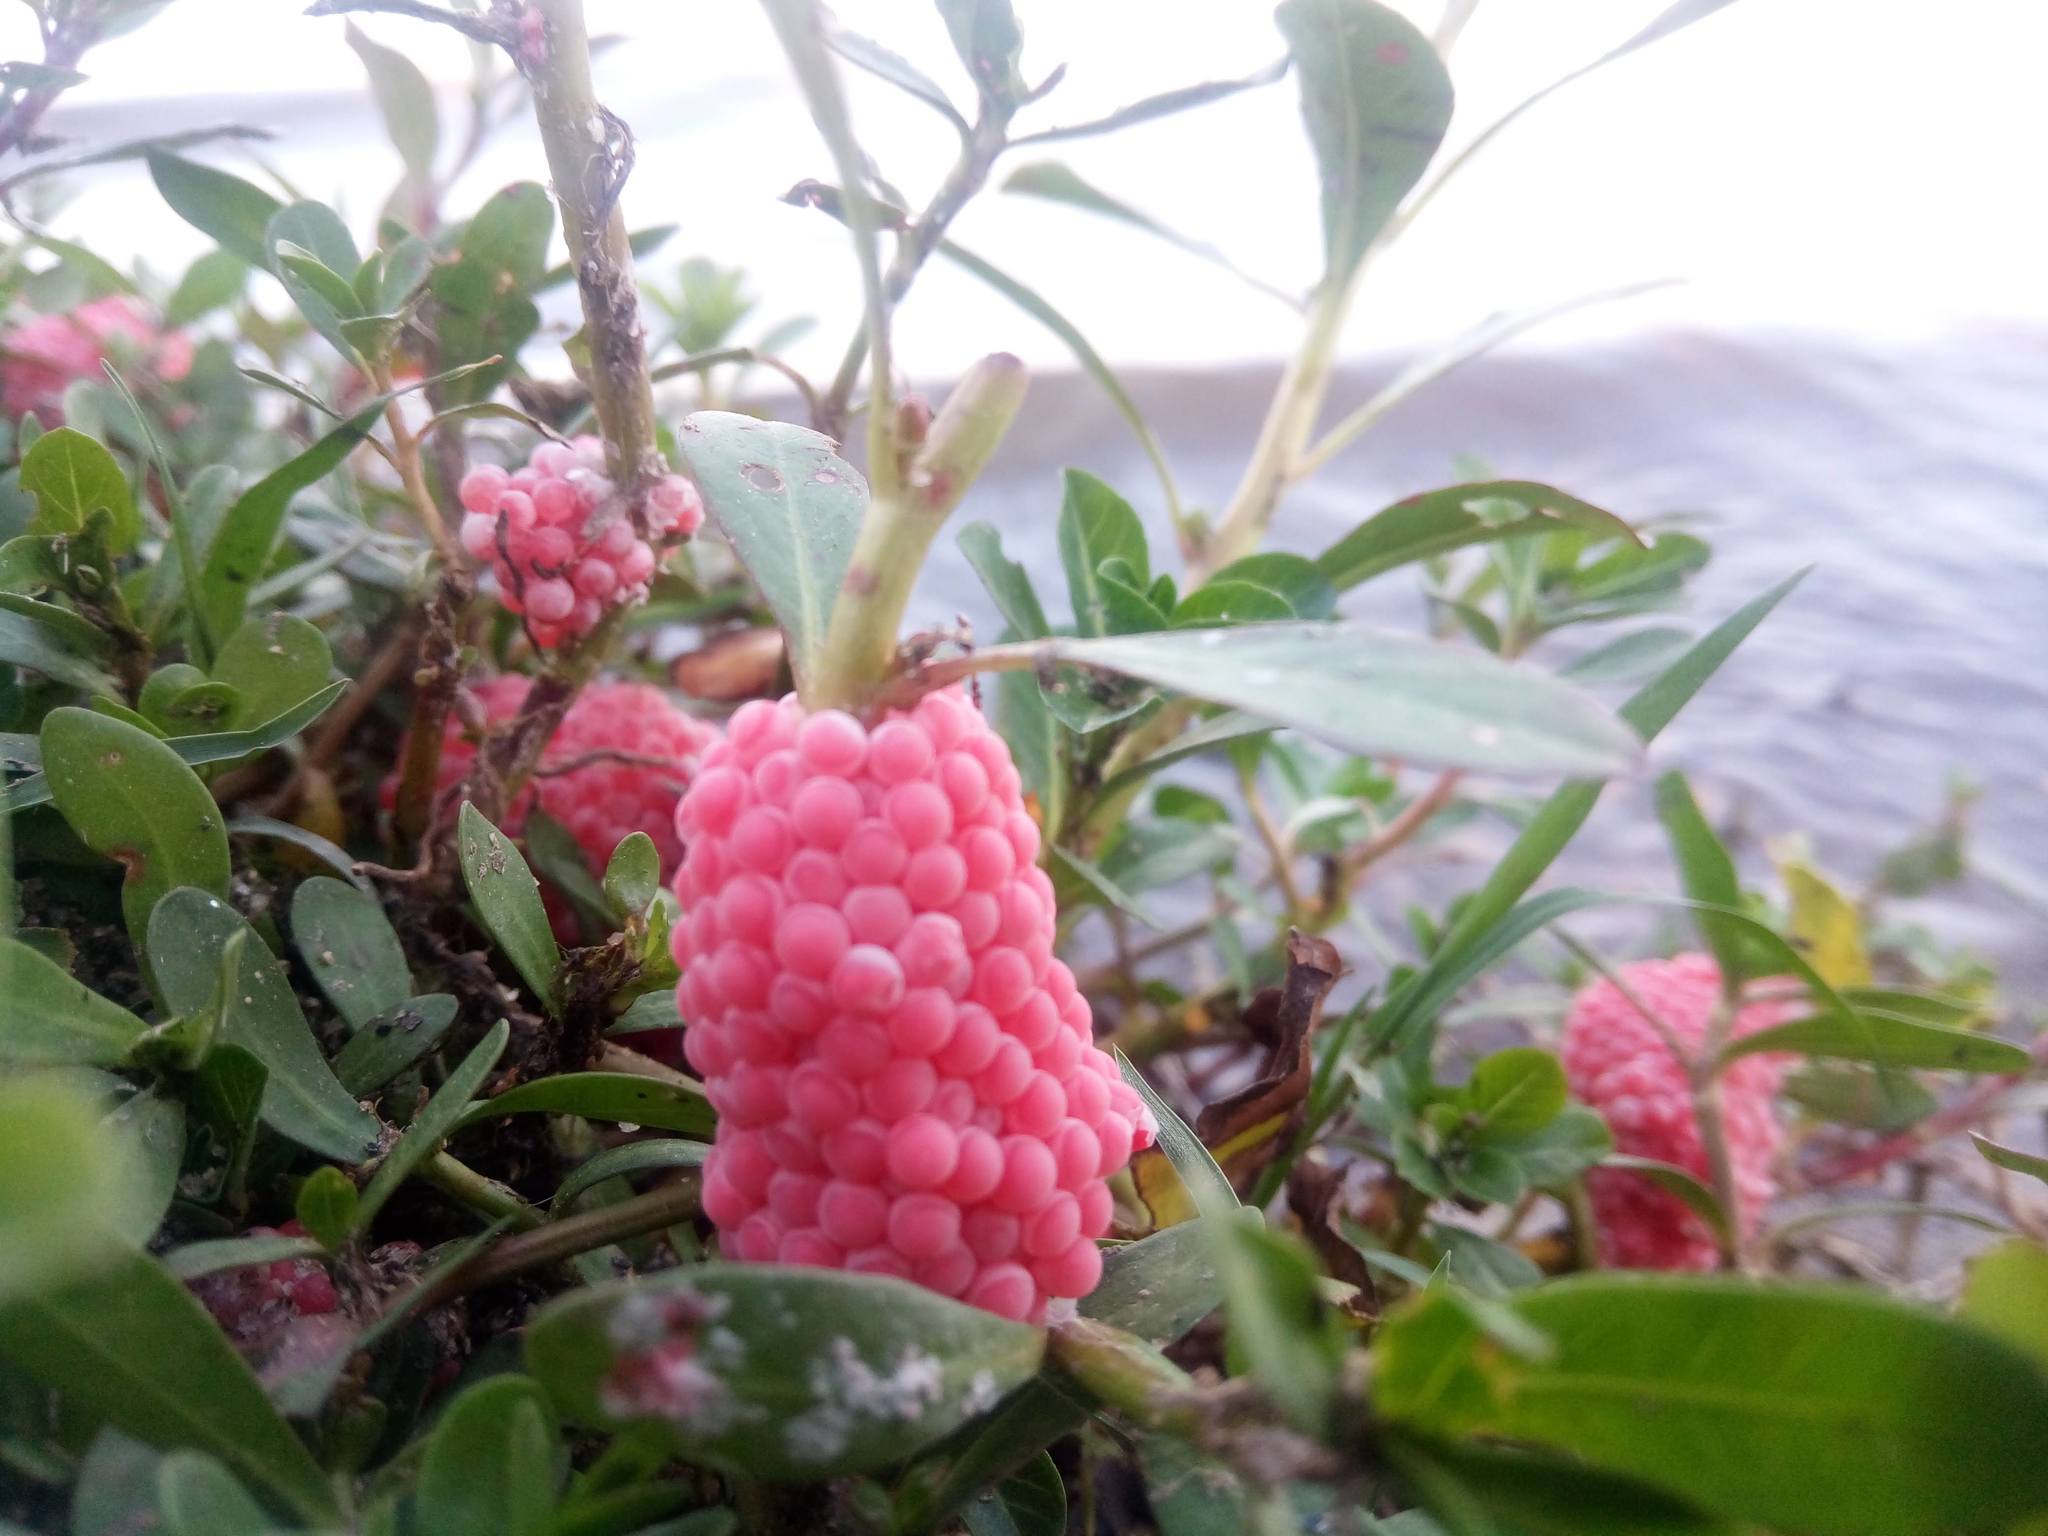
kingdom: Animalia
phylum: Mollusca
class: Gastropoda
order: Architaenioglossa
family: Ampullariidae
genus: Pomacea
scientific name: Pomacea canaliculata
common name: Channeled applesnail
